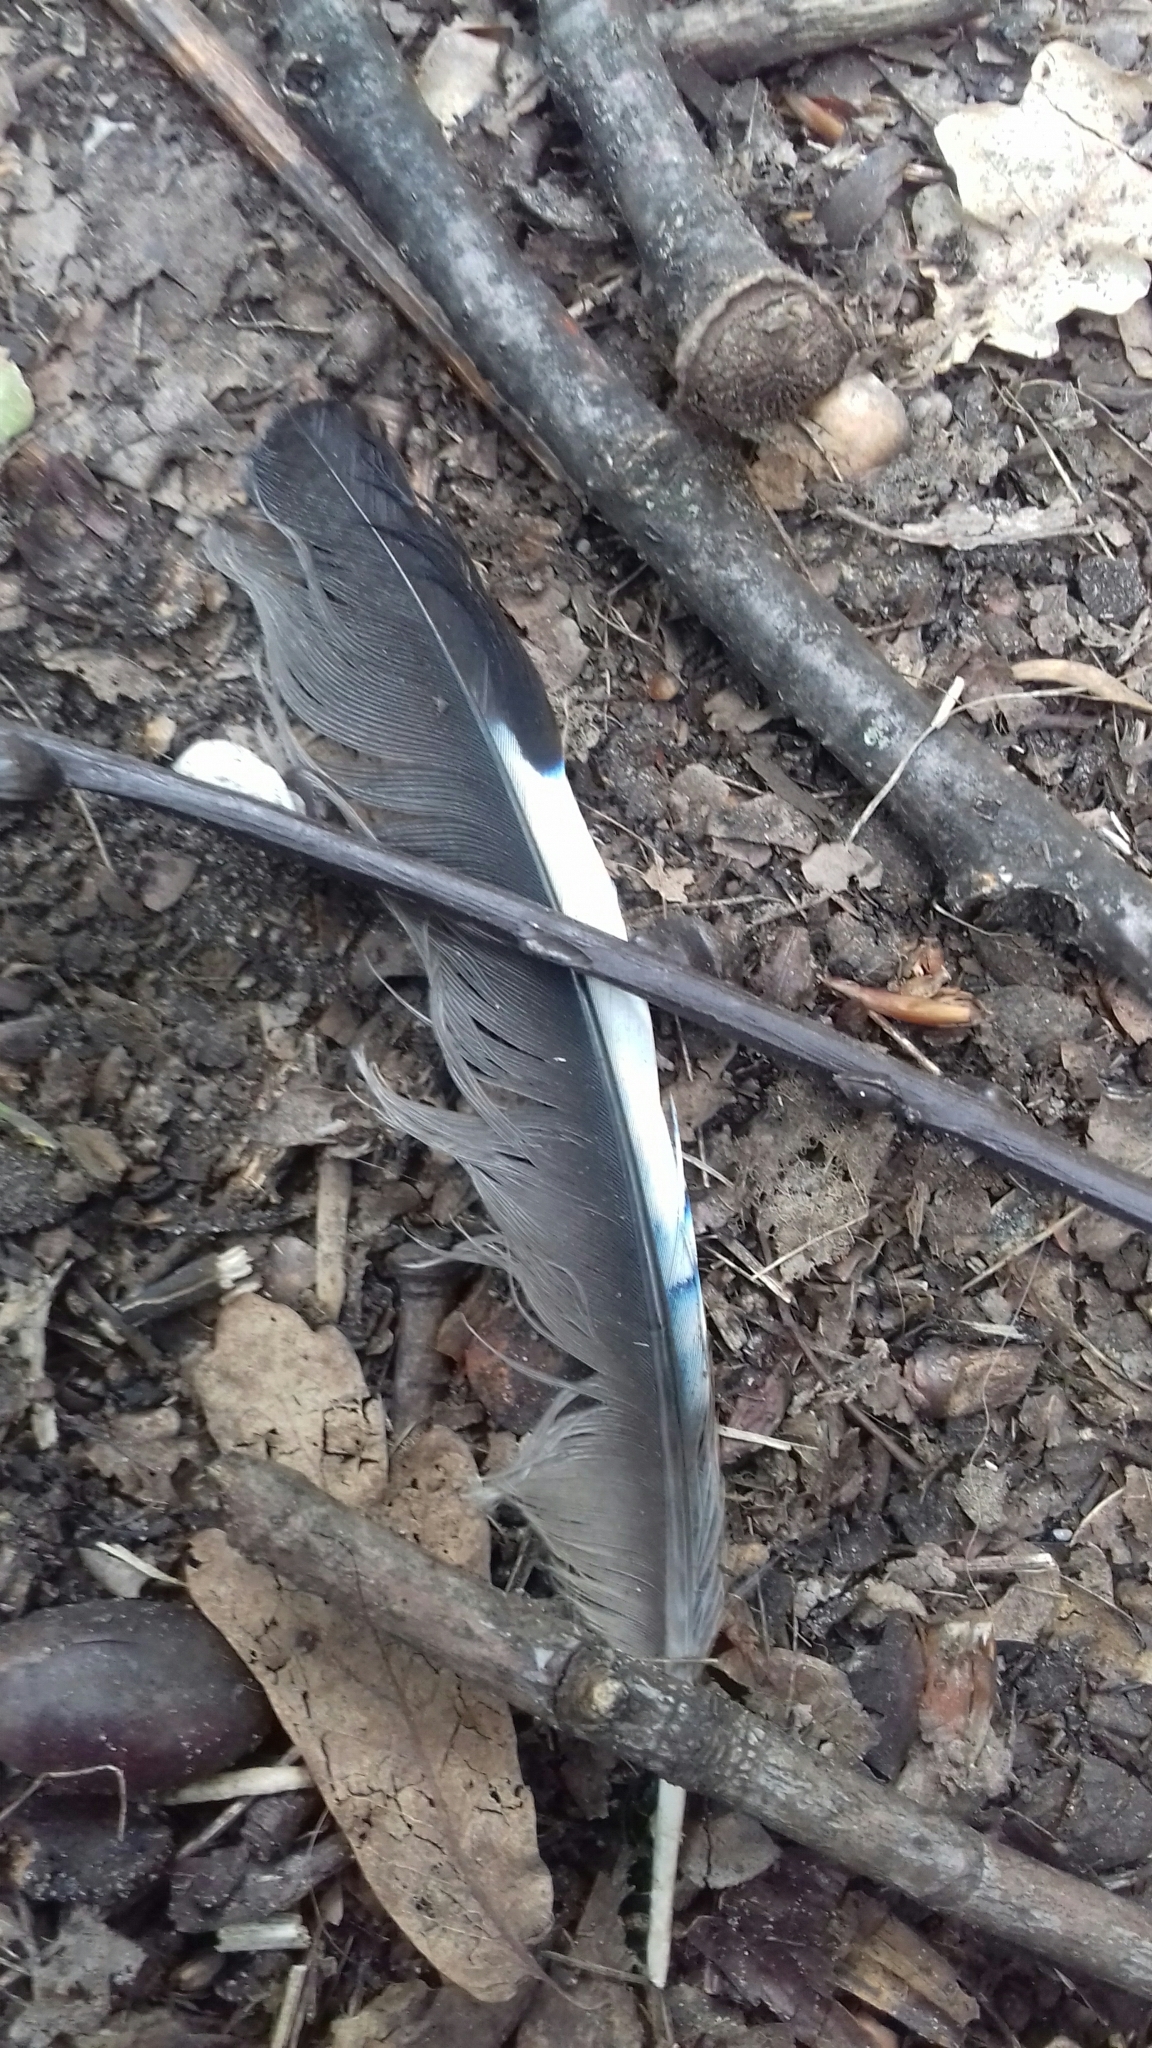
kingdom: Animalia
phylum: Chordata
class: Aves
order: Passeriformes
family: Corvidae
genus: Garrulus
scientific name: Garrulus glandarius
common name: Eurasian jay
